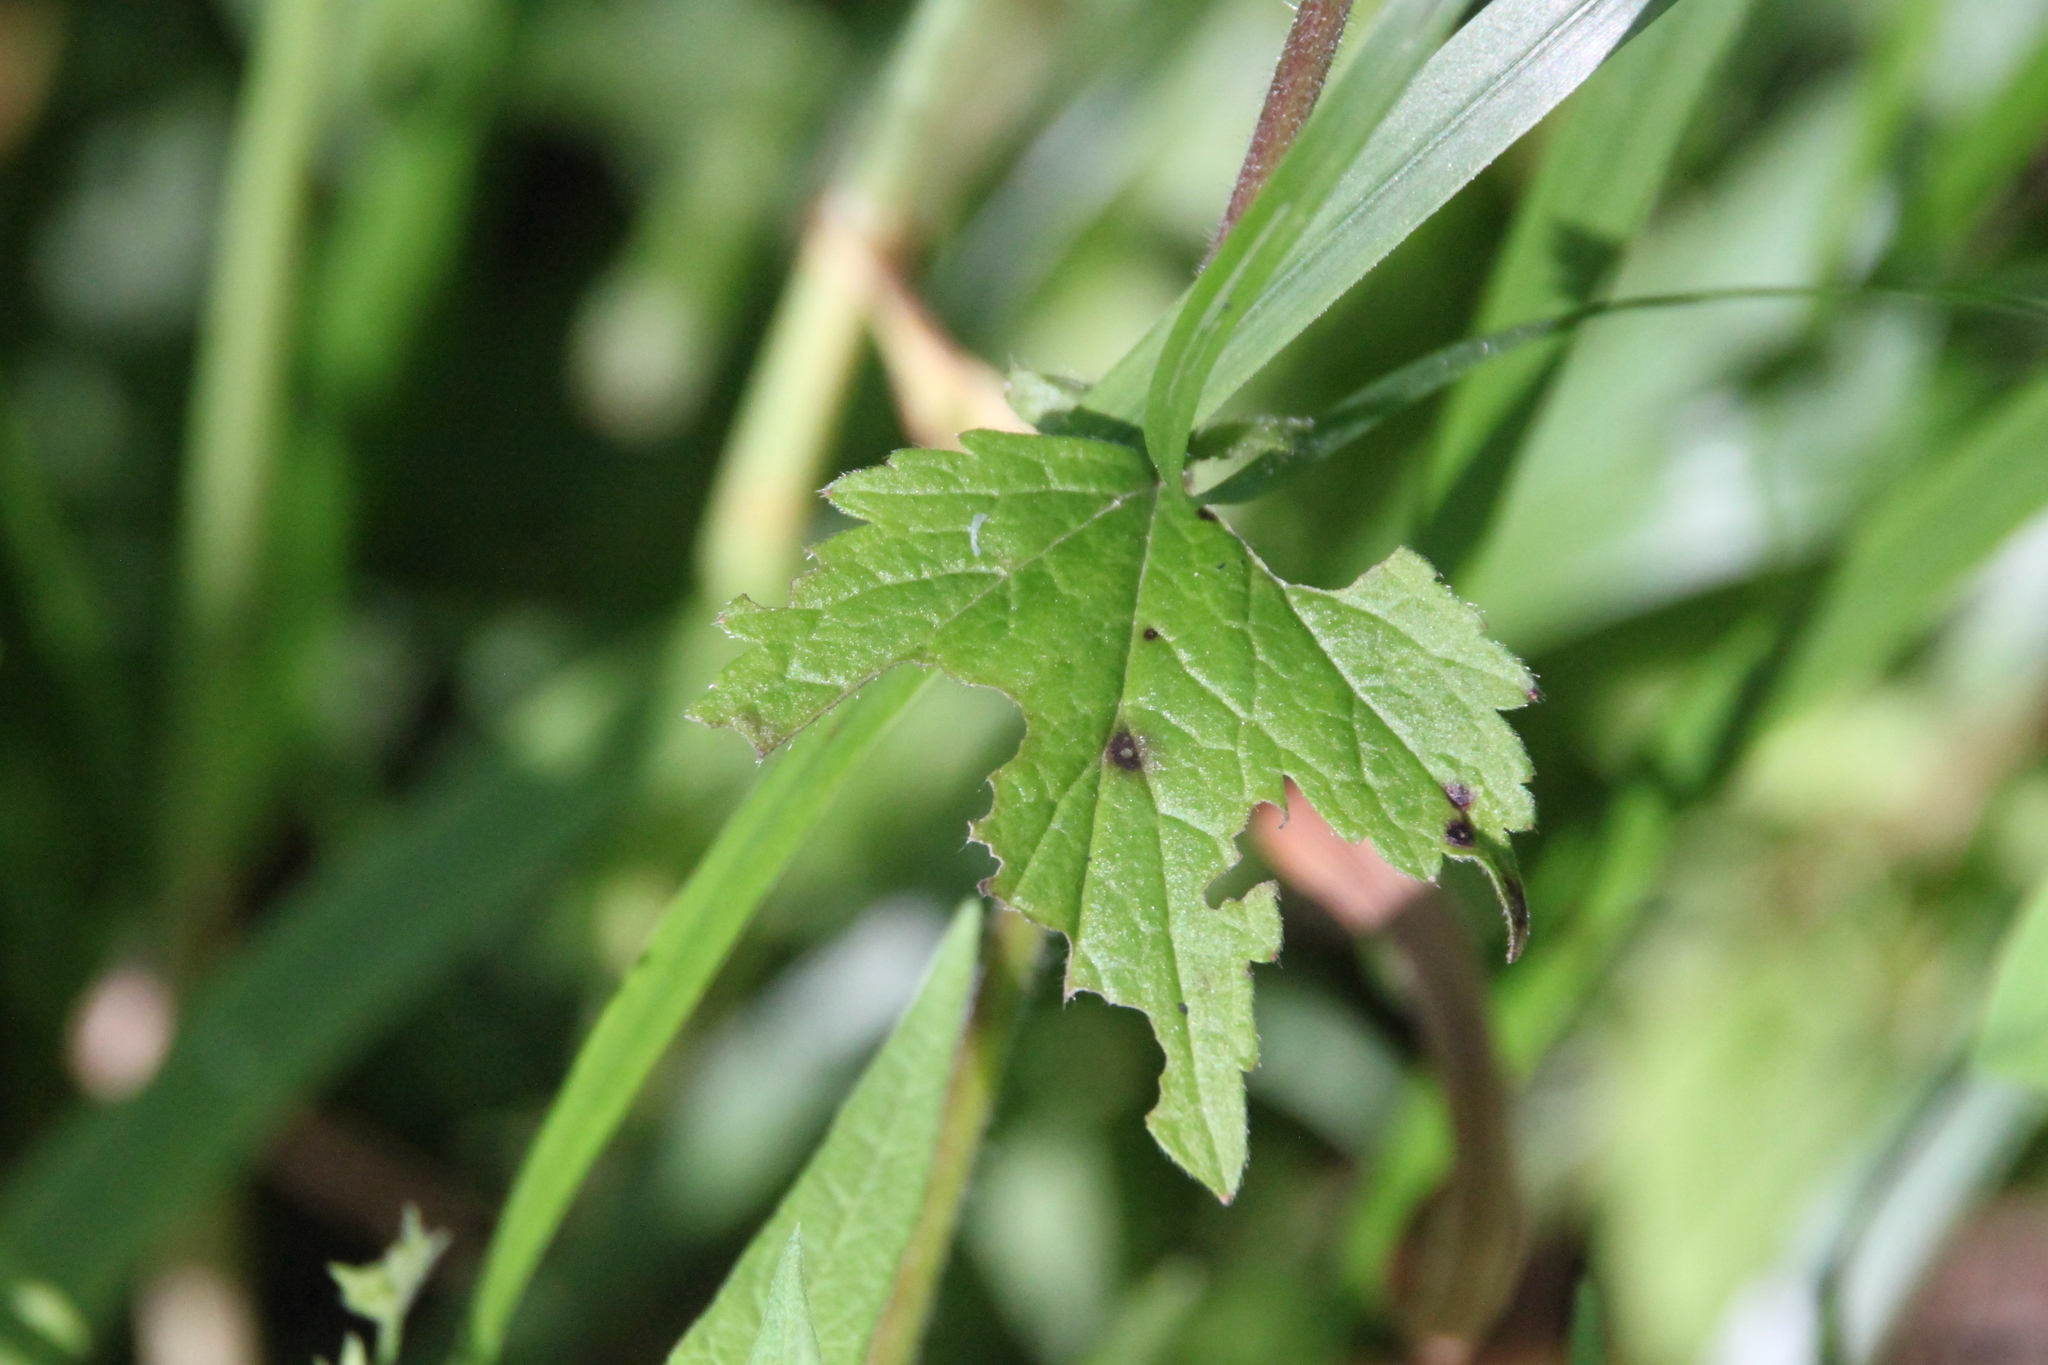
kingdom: Plantae
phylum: Tracheophyta
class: Magnoliopsida
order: Rosales
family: Rosaceae
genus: Geum
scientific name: Geum rivale
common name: Water avens
